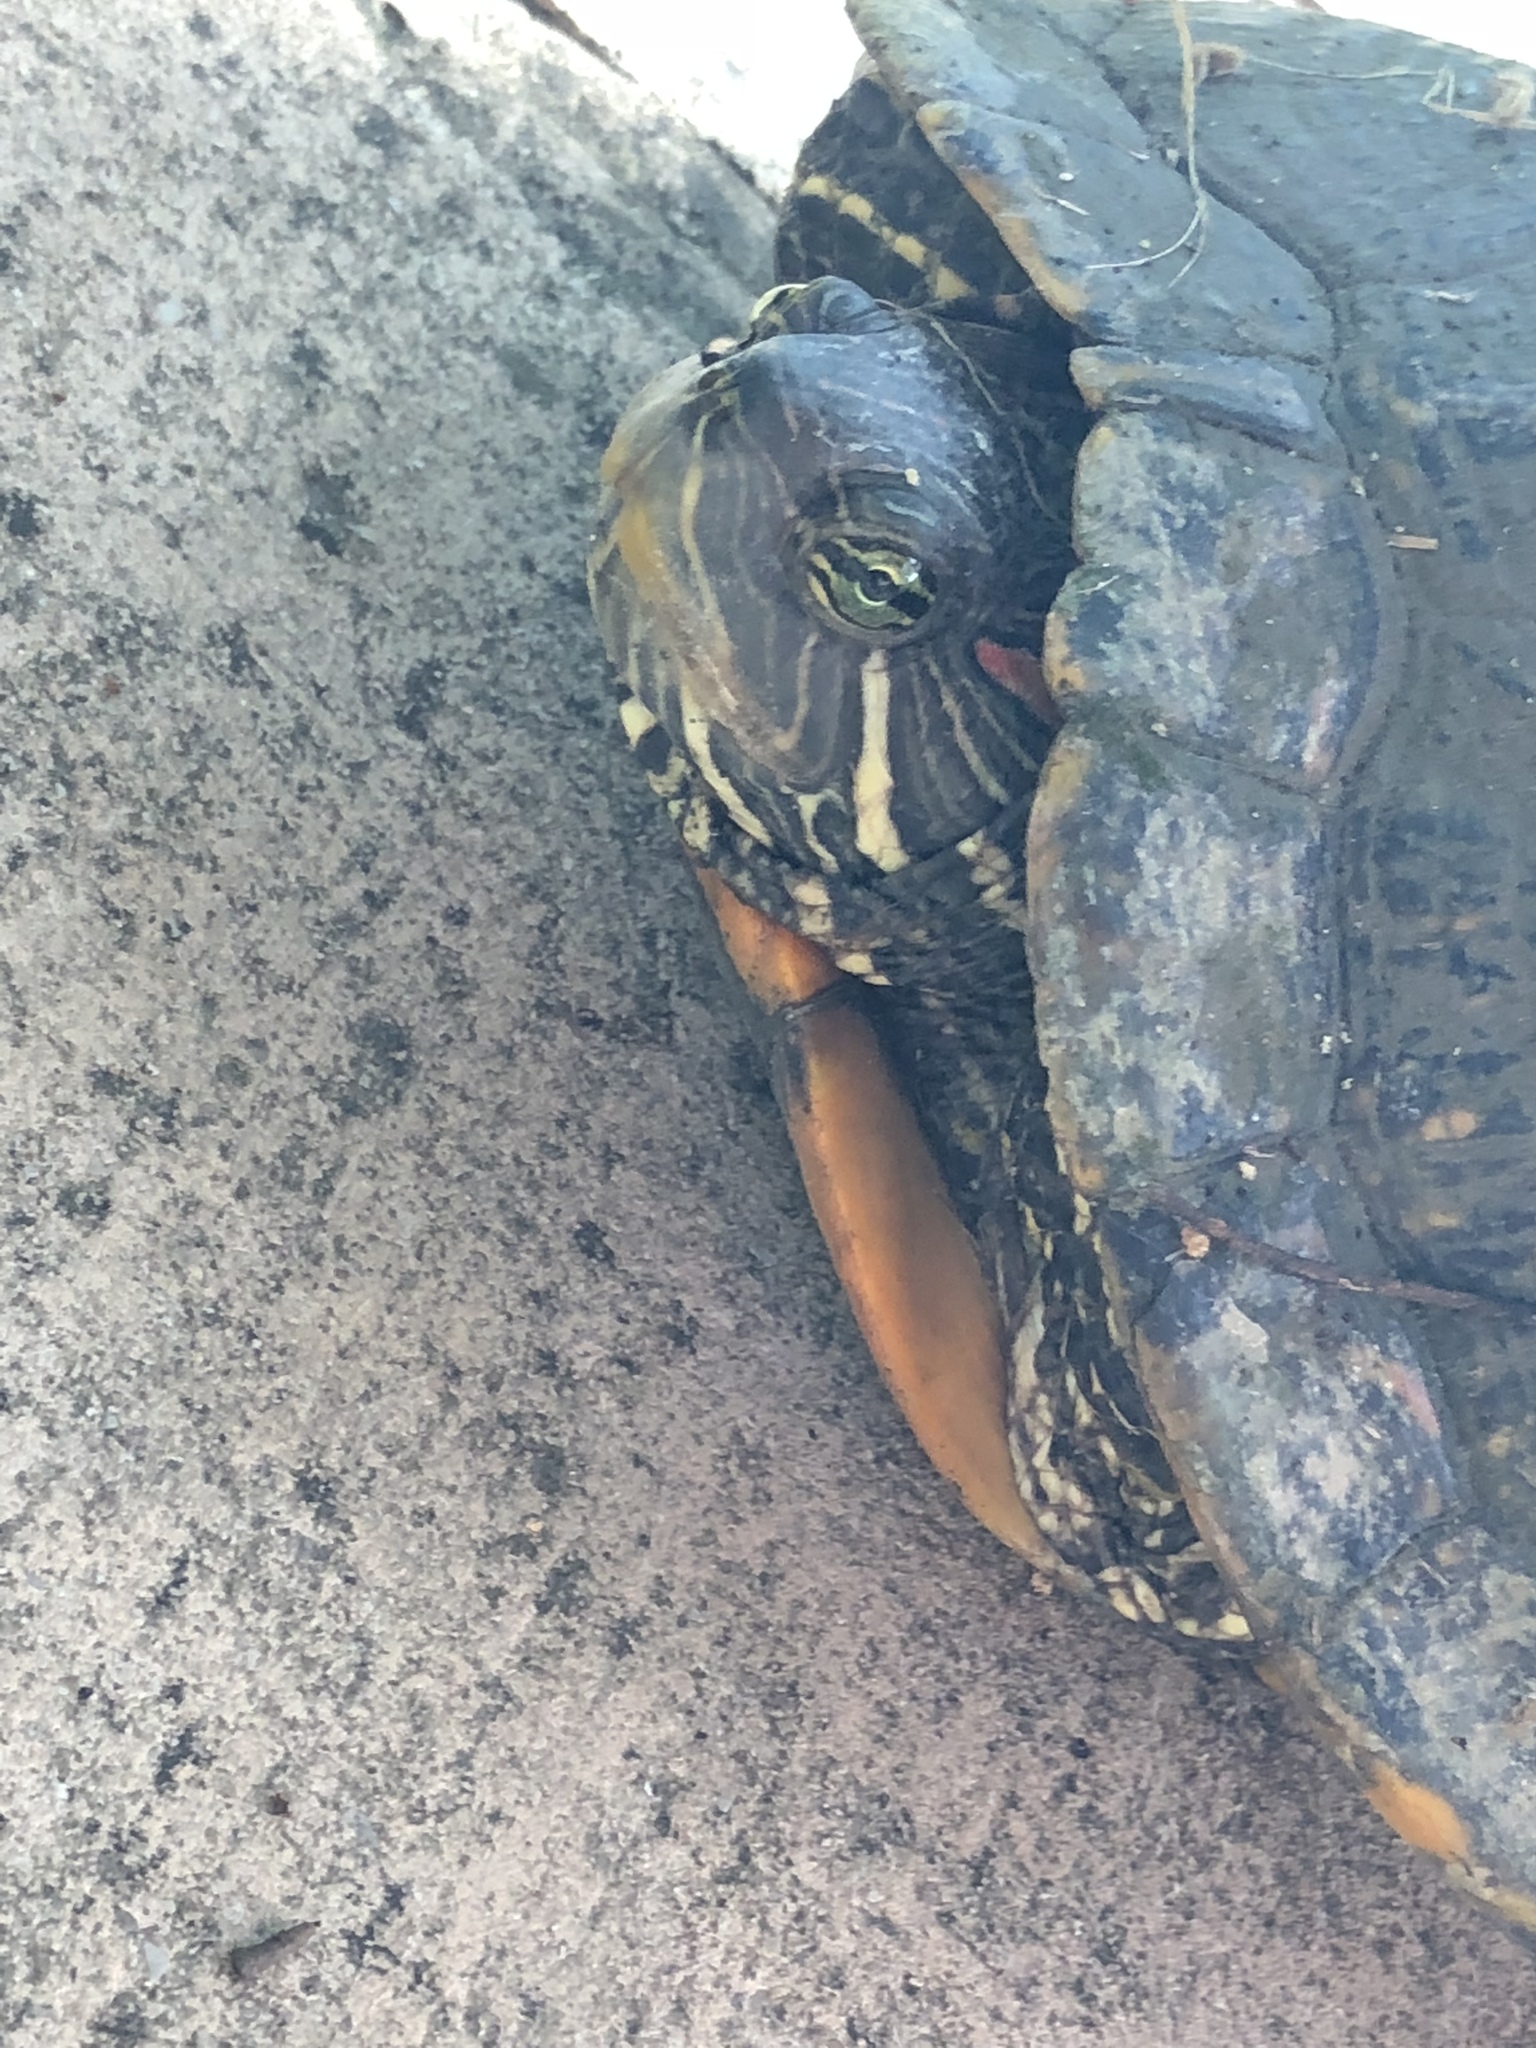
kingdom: Animalia
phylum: Chordata
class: Testudines
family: Emydidae
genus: Trachemys
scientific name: Trachemys scripta
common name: Slider
